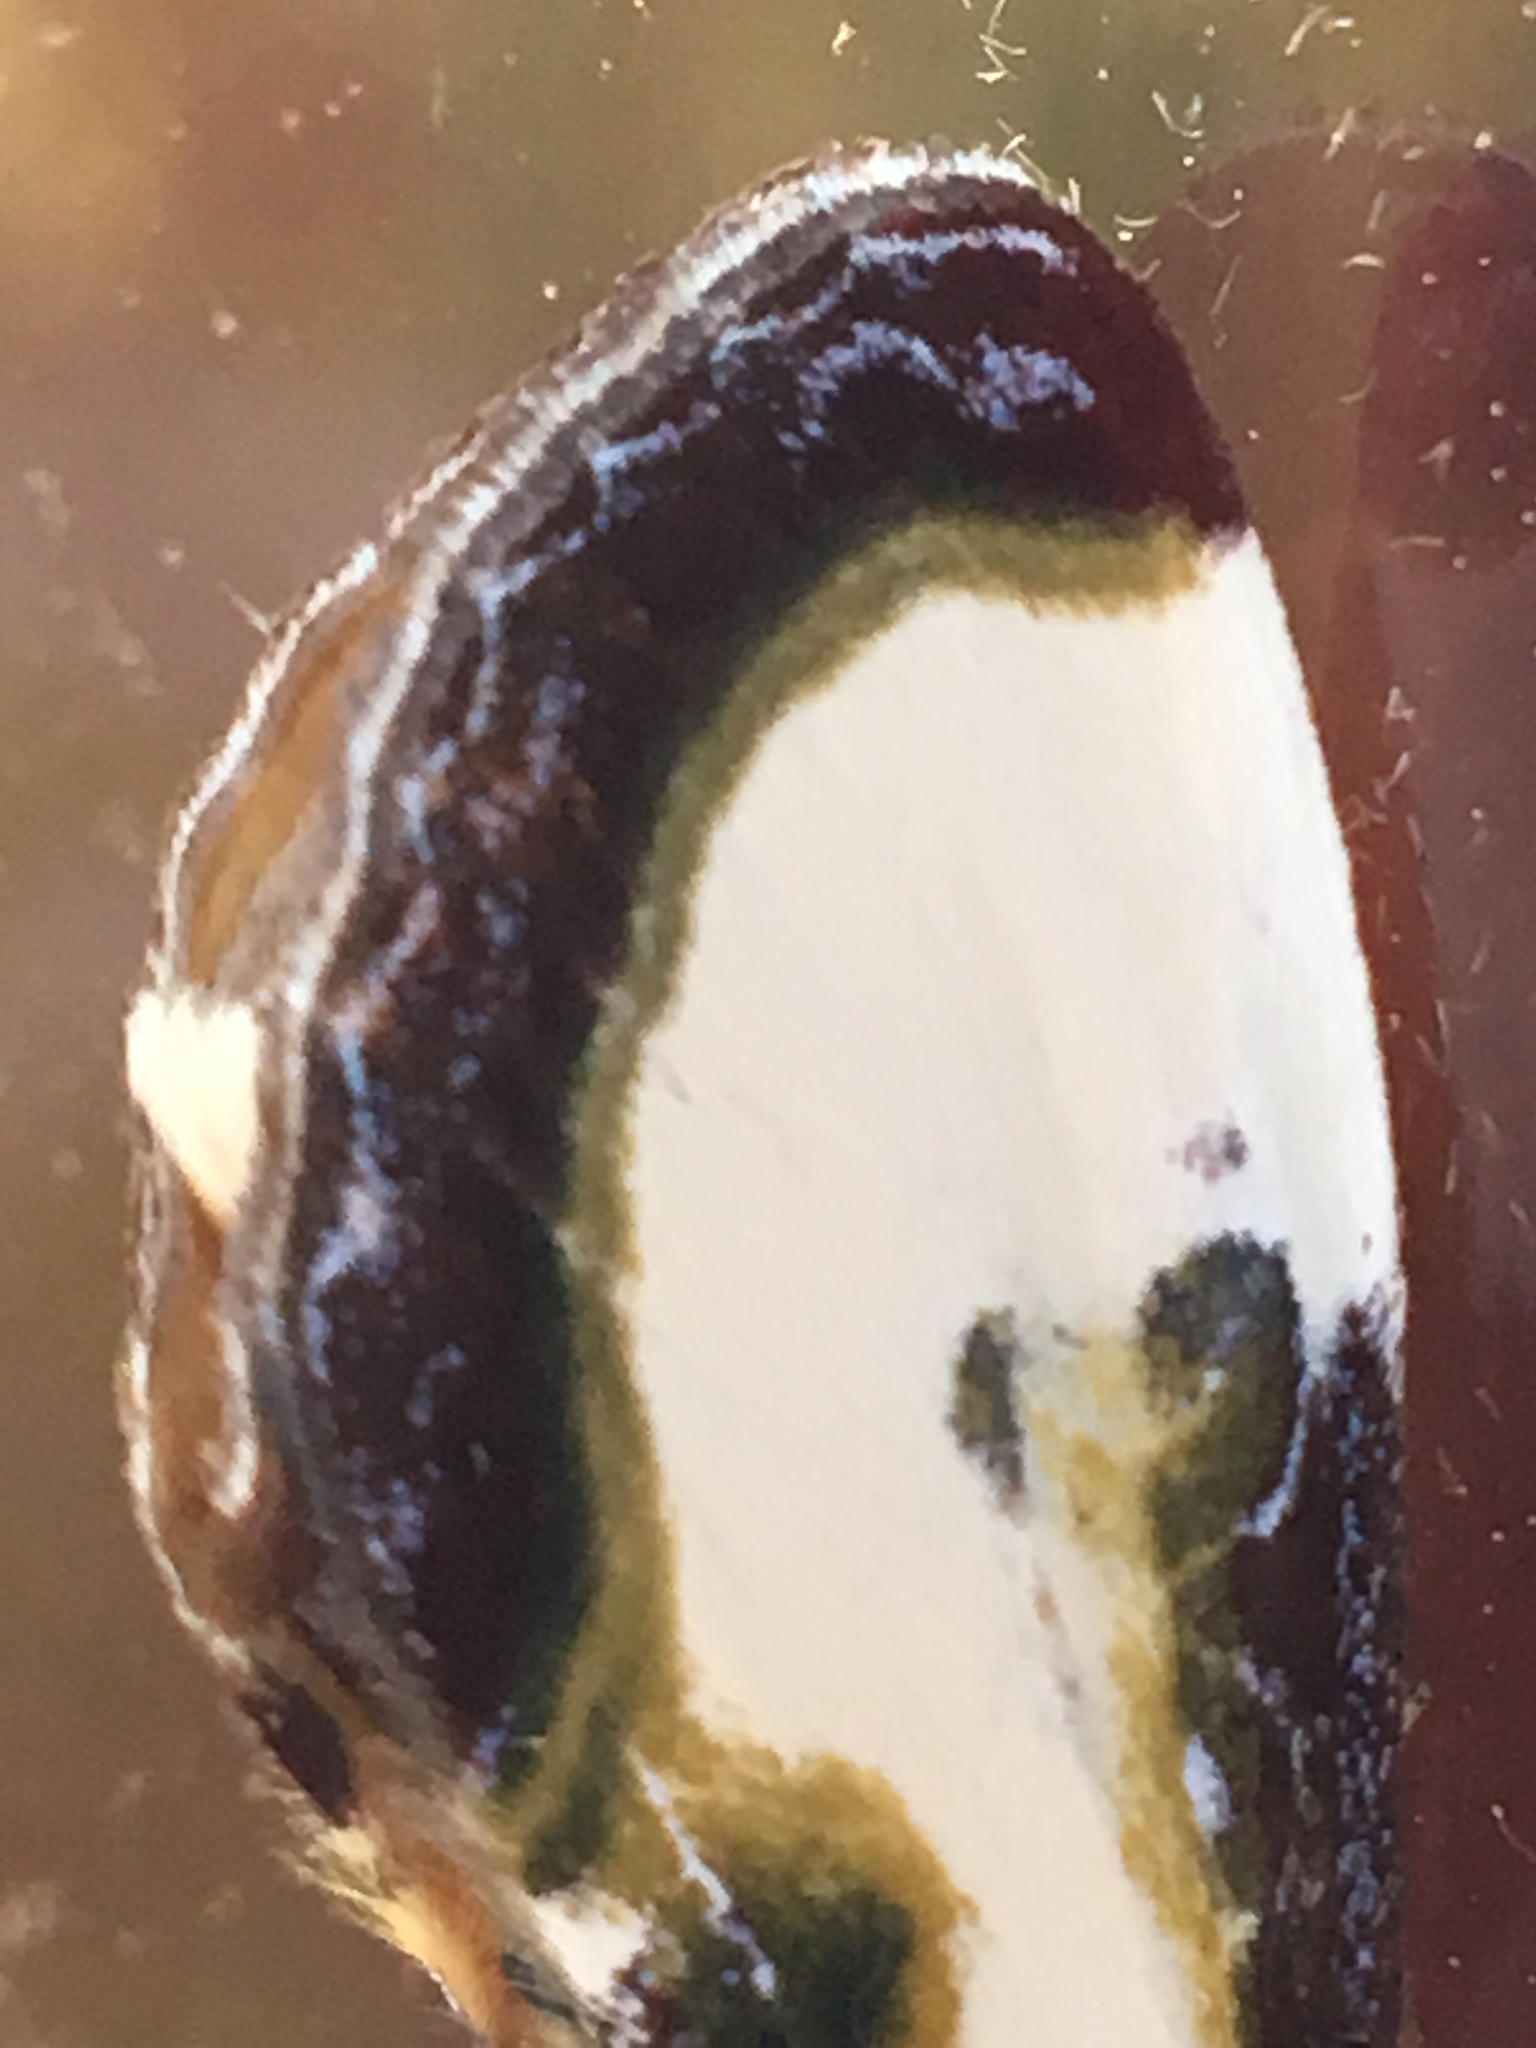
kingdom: Animalia
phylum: Arthropoda
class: Insecta
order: Lepidoptera
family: Noctuidae
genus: Eudryas
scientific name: Eudryas grata
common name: Beautiful wood-nymph
